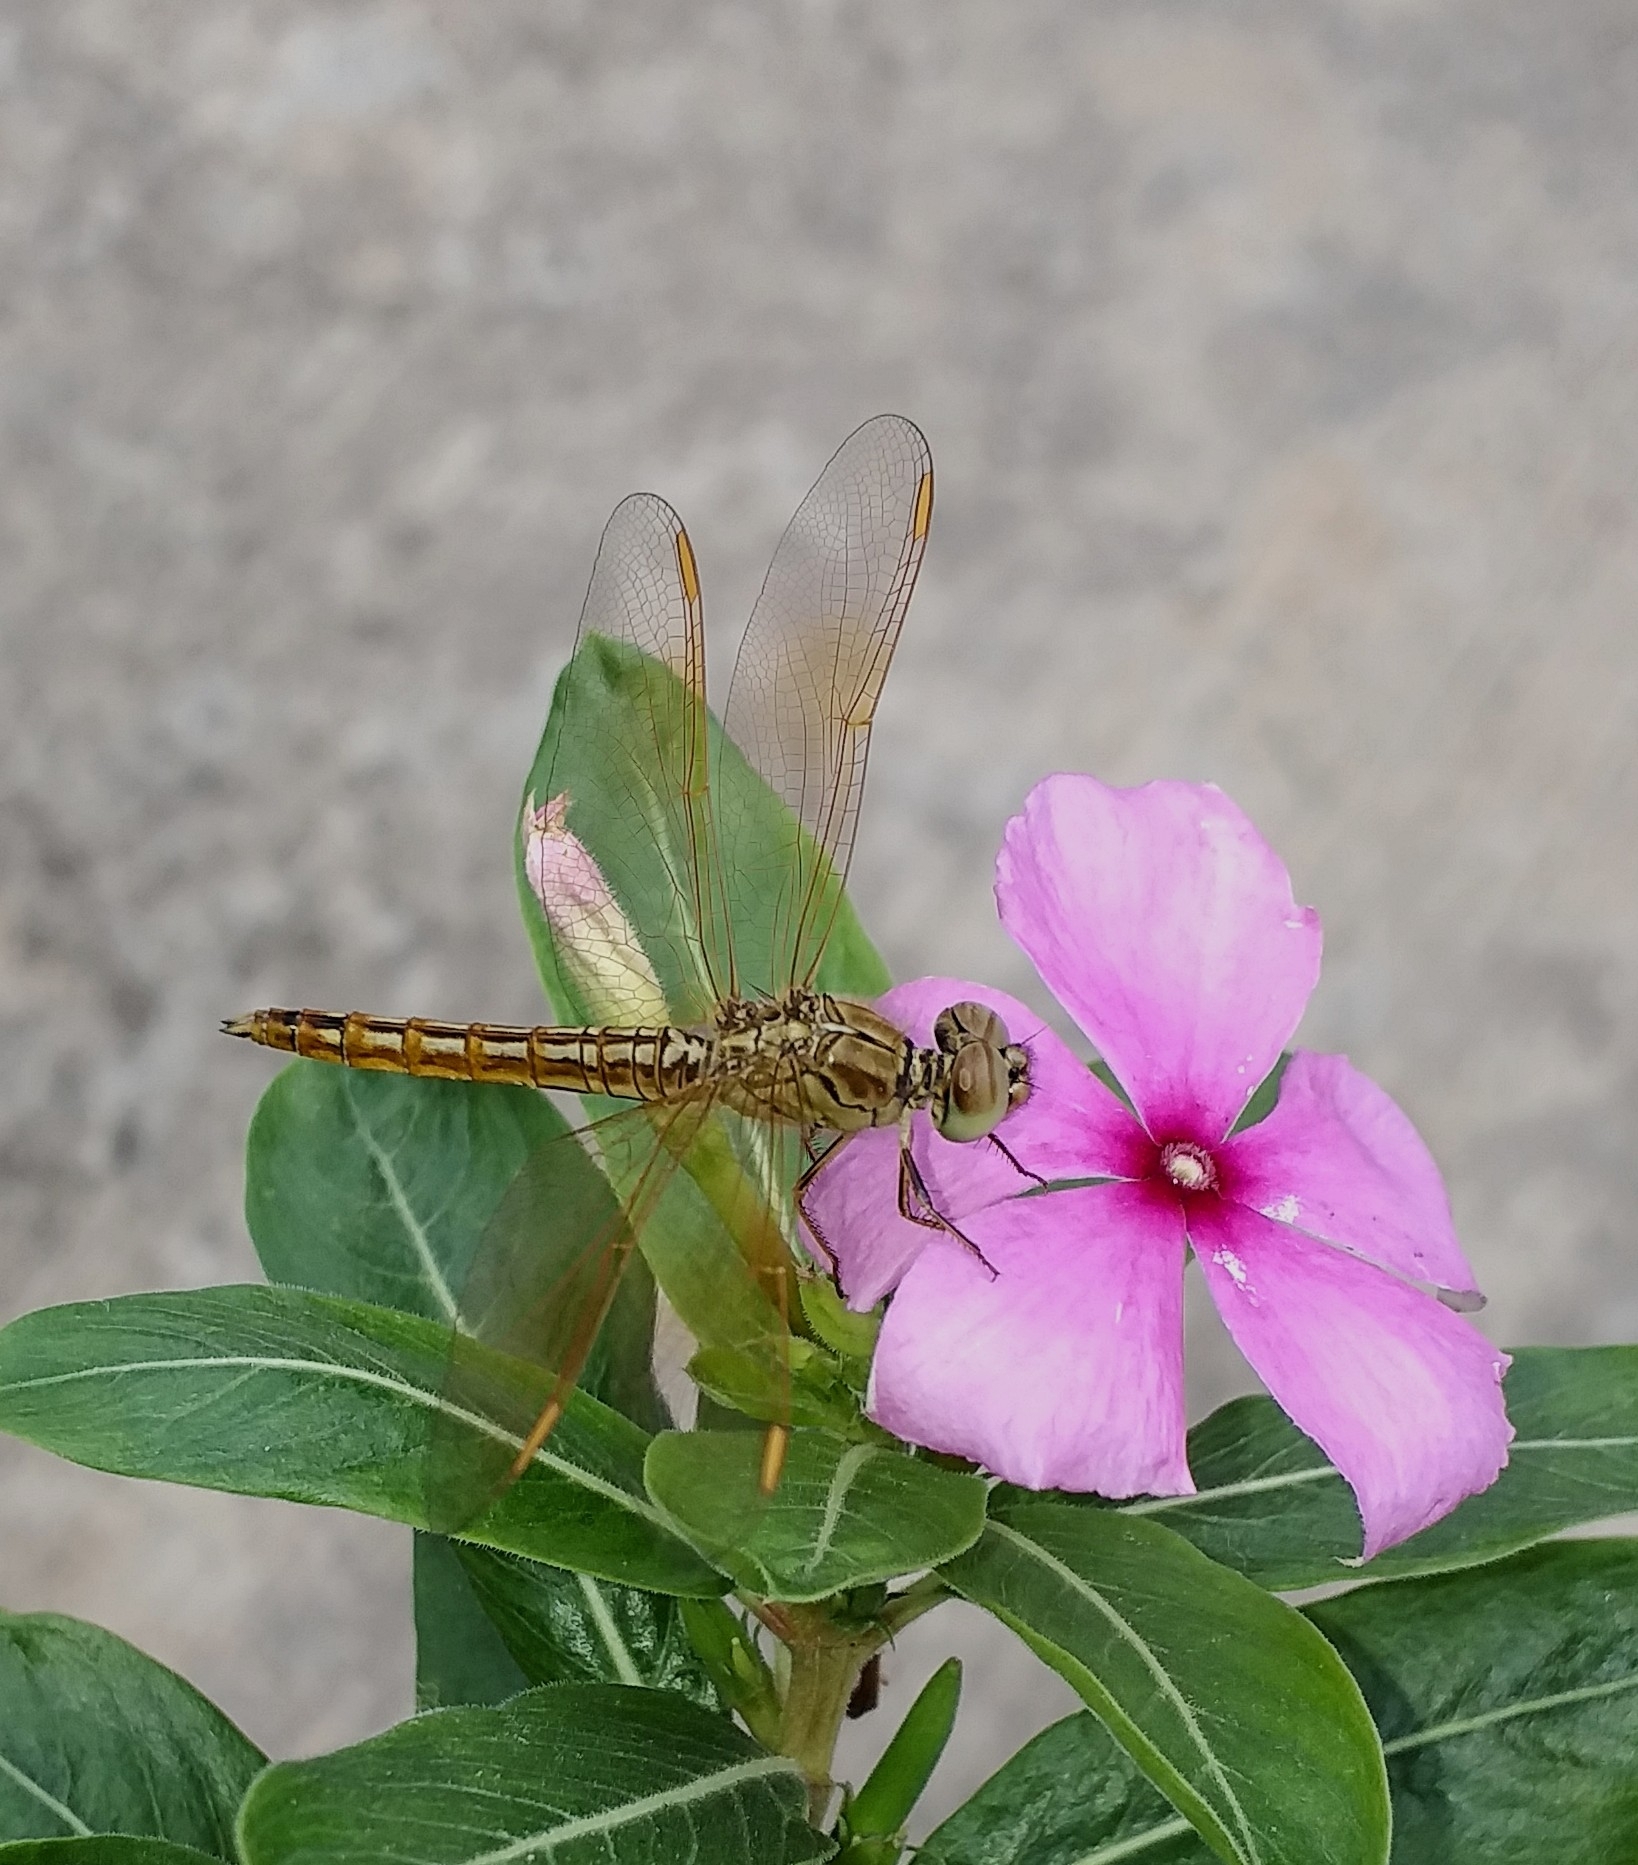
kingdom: Animalia
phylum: Arthropoda
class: Insecta
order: Odonata
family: Libellulidae
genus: Brachythemis
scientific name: Brachythemis contaminata
